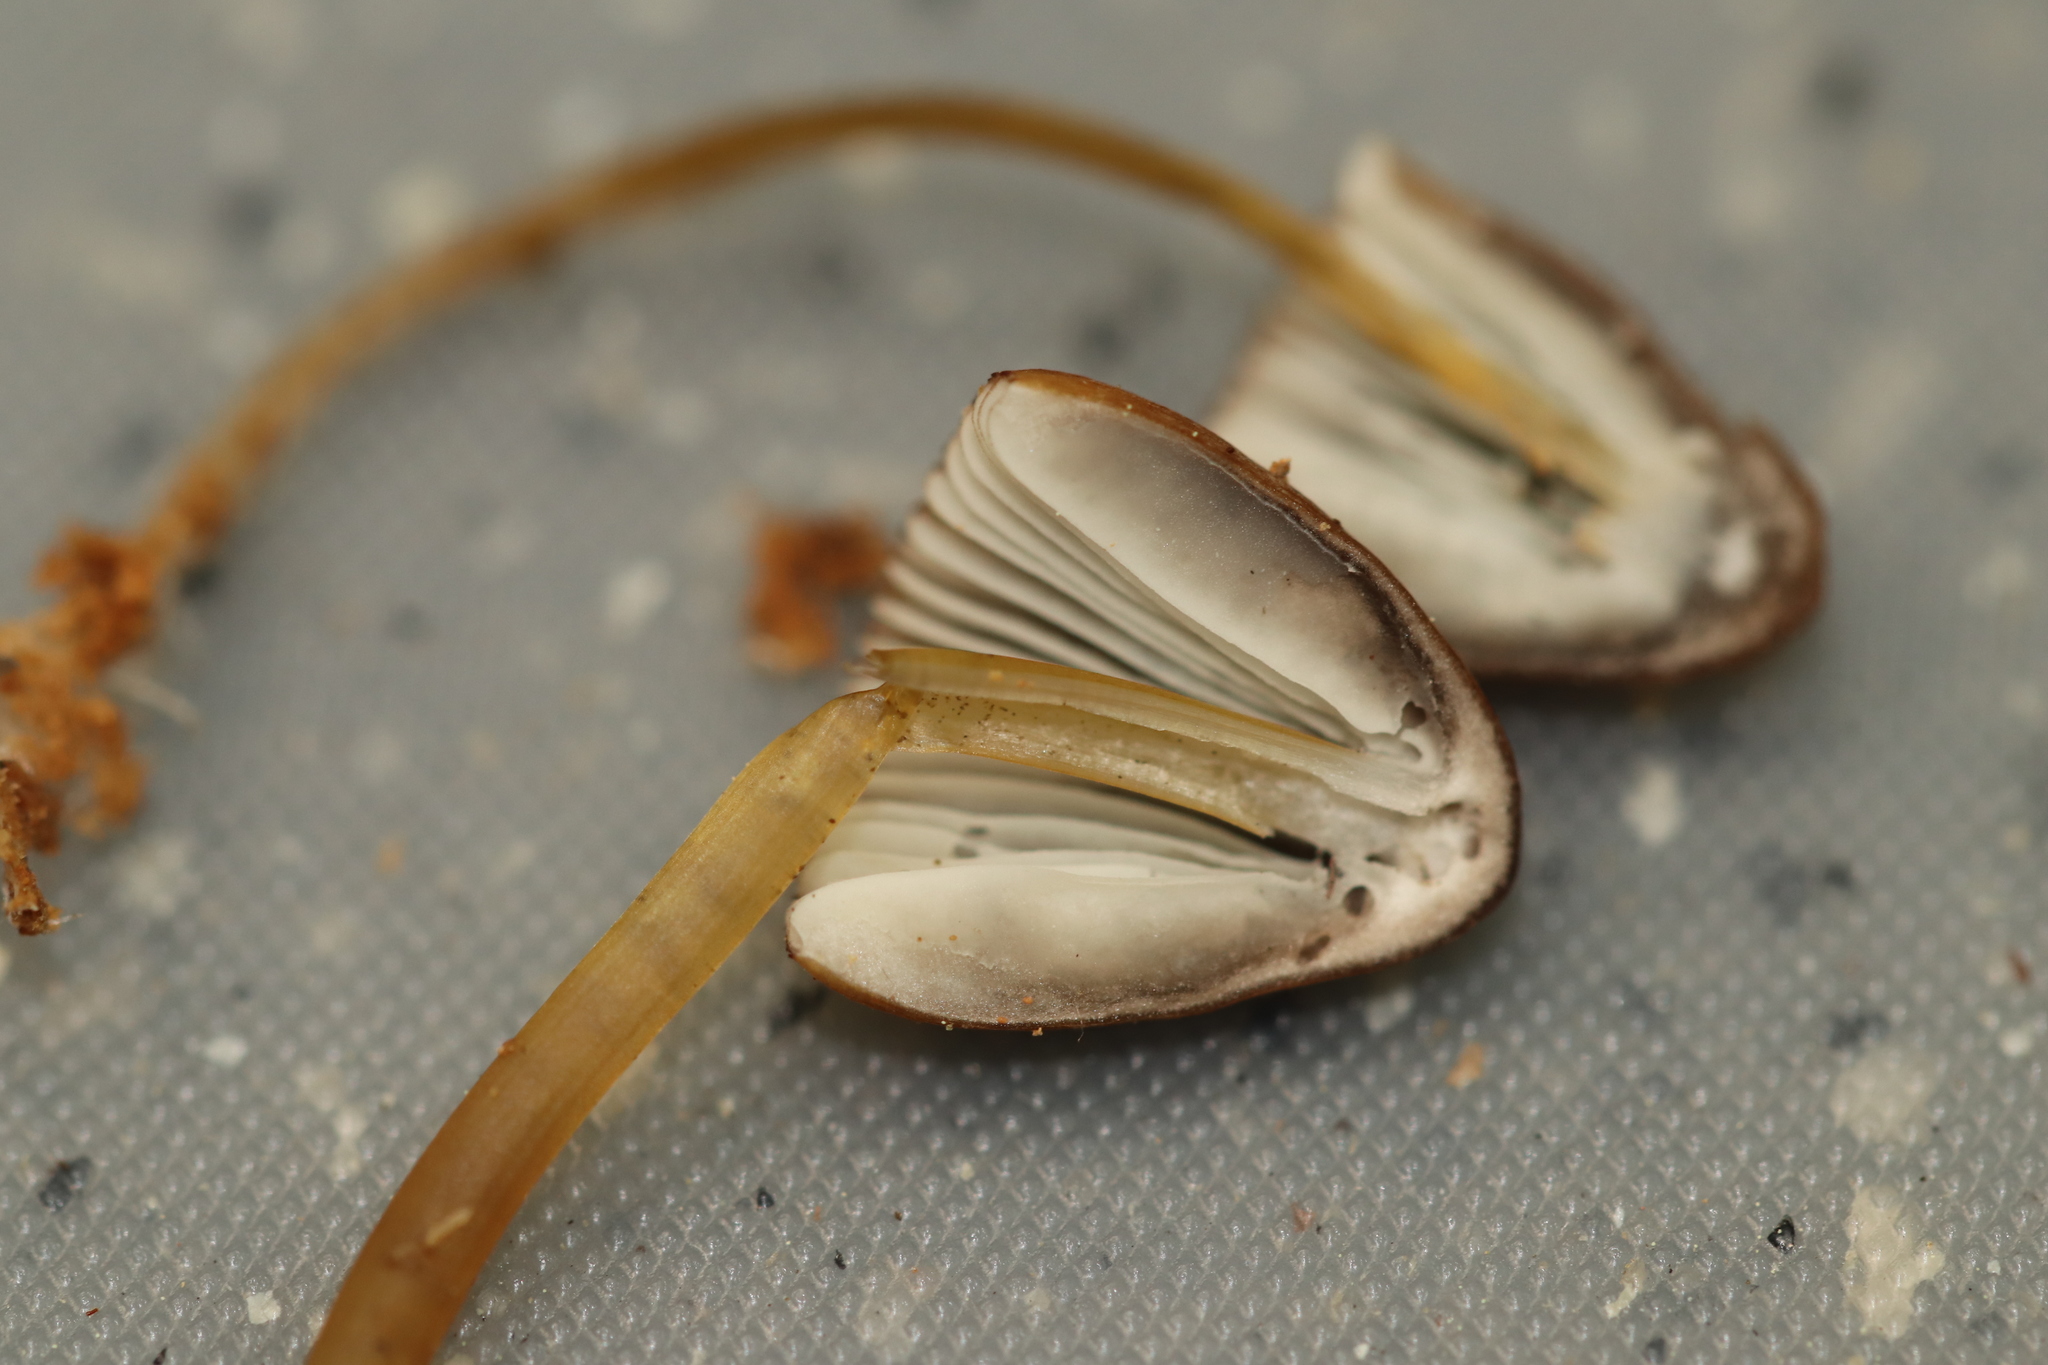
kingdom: Fungi
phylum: Basidiomycota
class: Agaricomycetes
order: Agaricales
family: Mycenaceae
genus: Mycena
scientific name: Mycena viridimarginata
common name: Olive edge bonnet
